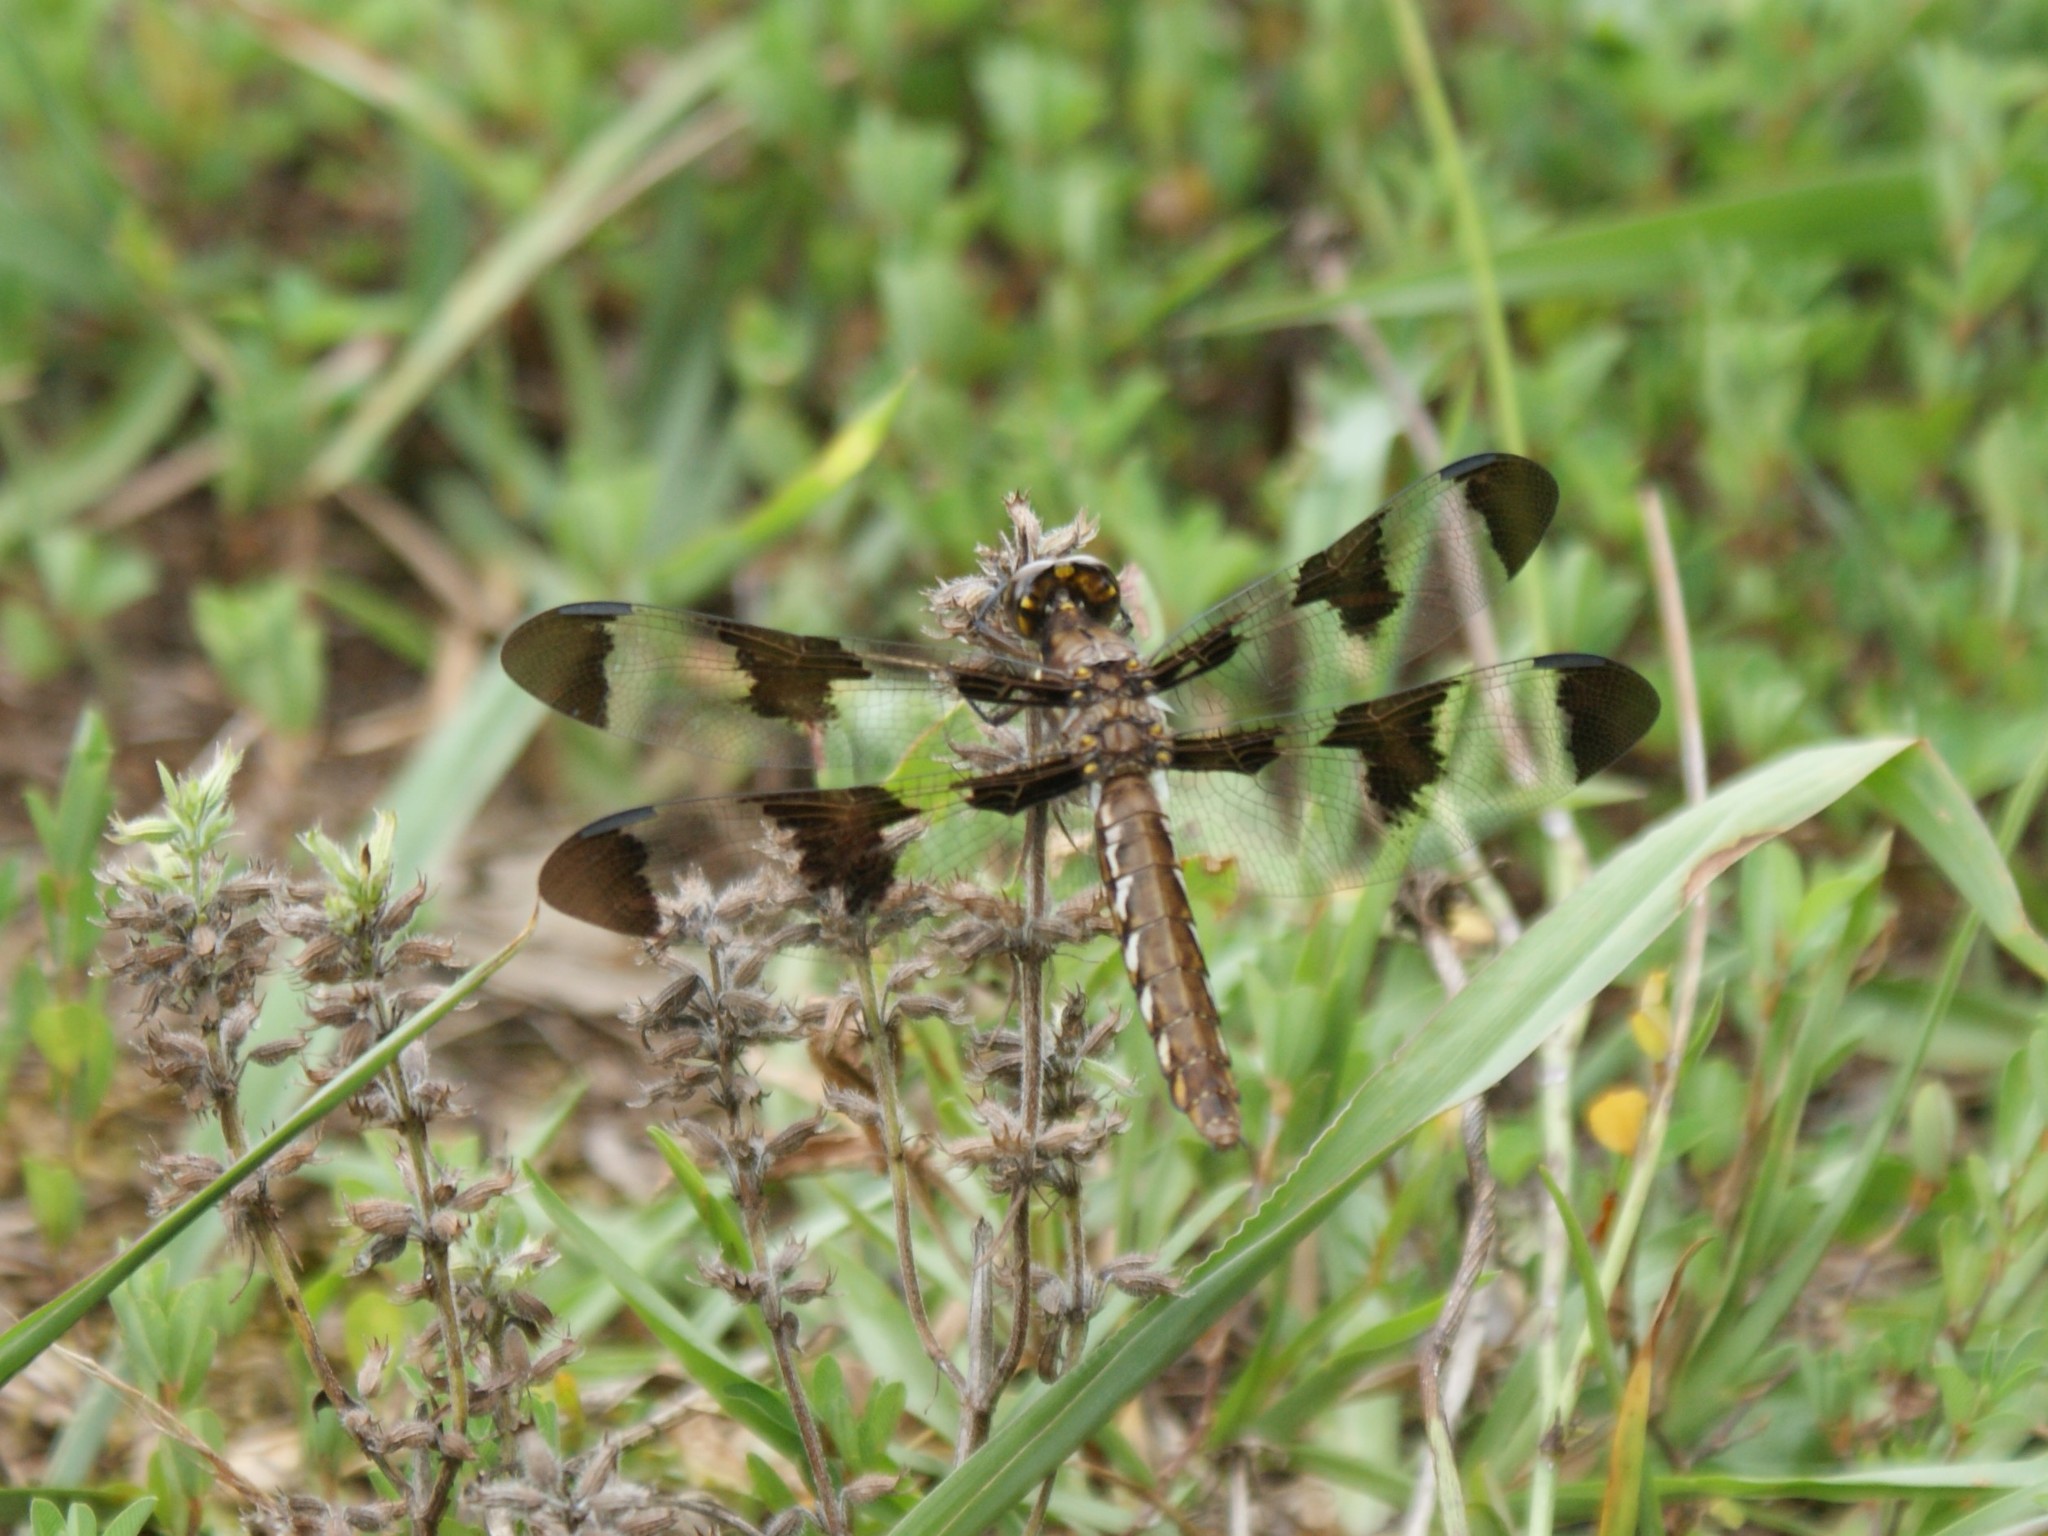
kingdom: Animalia
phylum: Arthropoda
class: Insecta
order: Odonata
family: Libellulidae
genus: Plathemis
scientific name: Plathemis lydia
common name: Common whitetail
